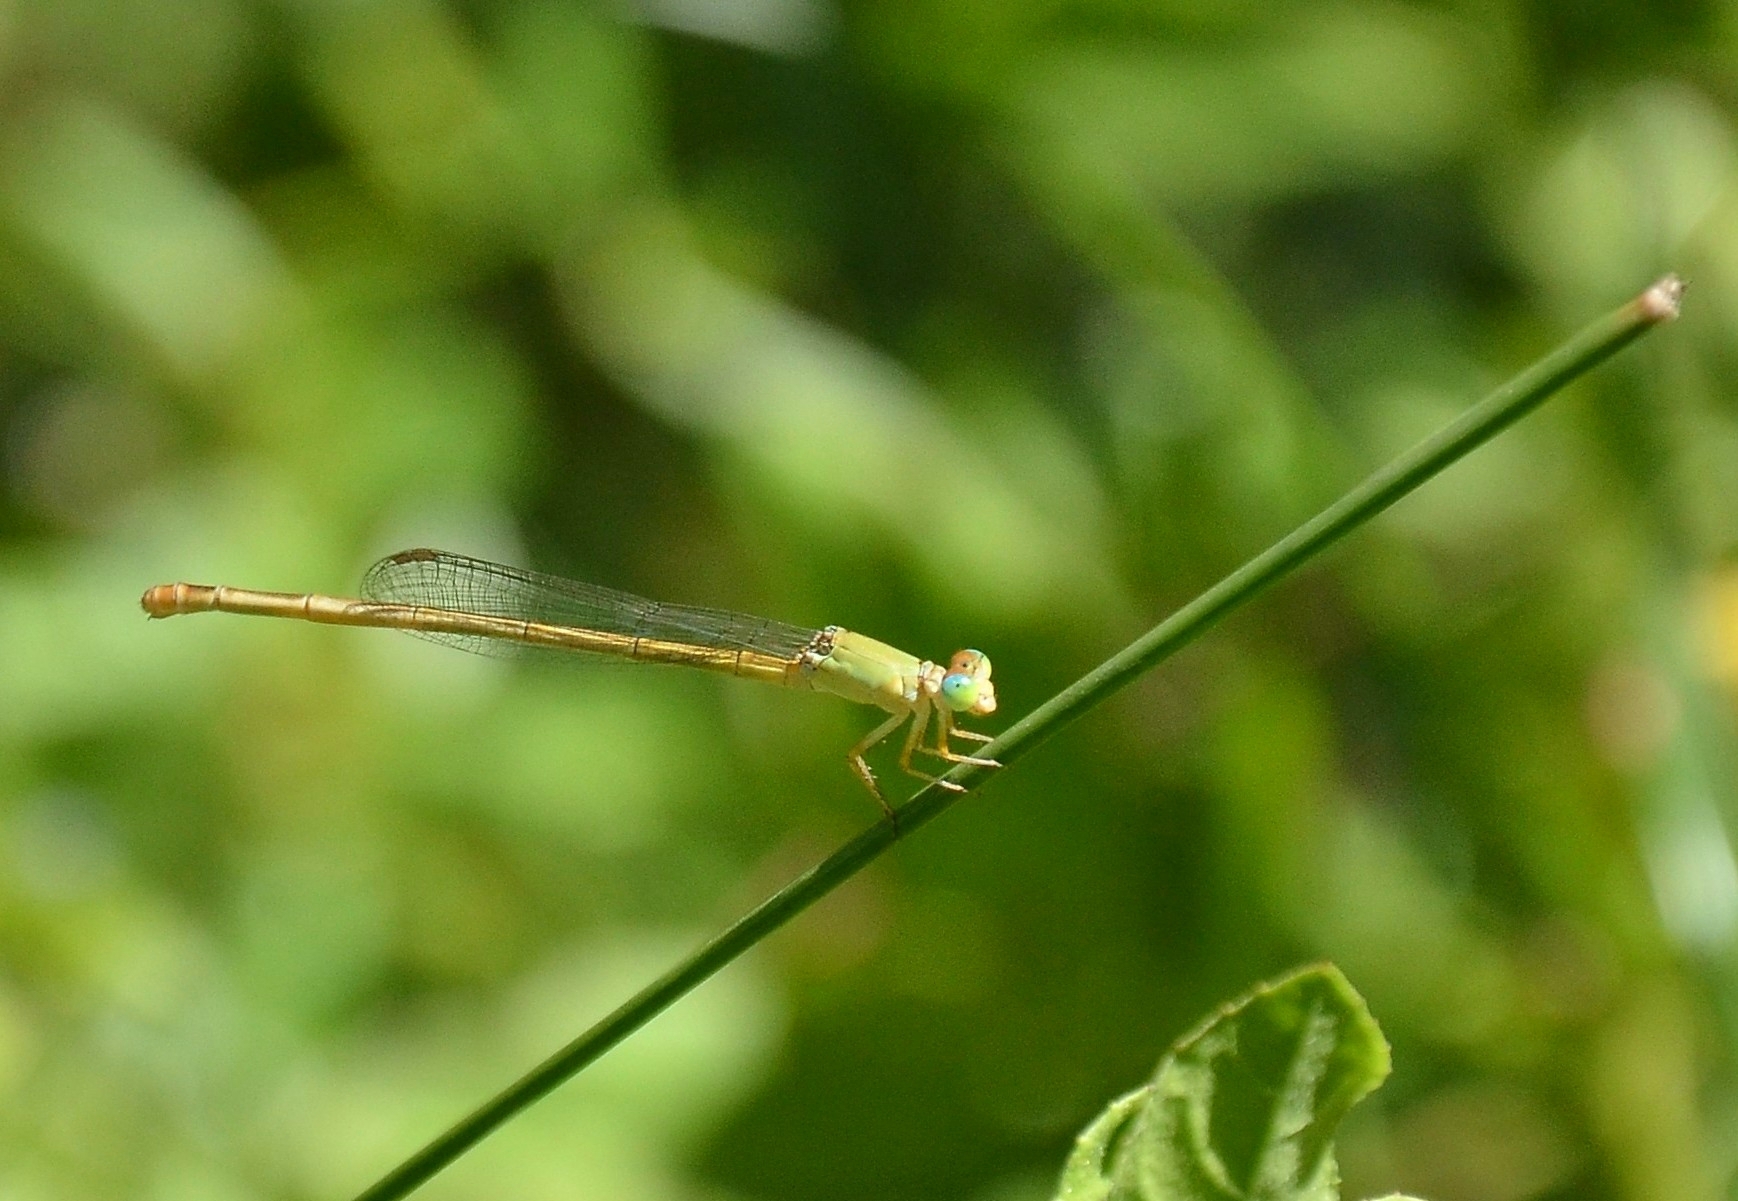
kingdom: Animalia
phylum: Arthropoda
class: Insecta
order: Odonata
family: Coenagrionidae
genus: Ceriagrion
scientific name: Ceriagrion coromandelianum
